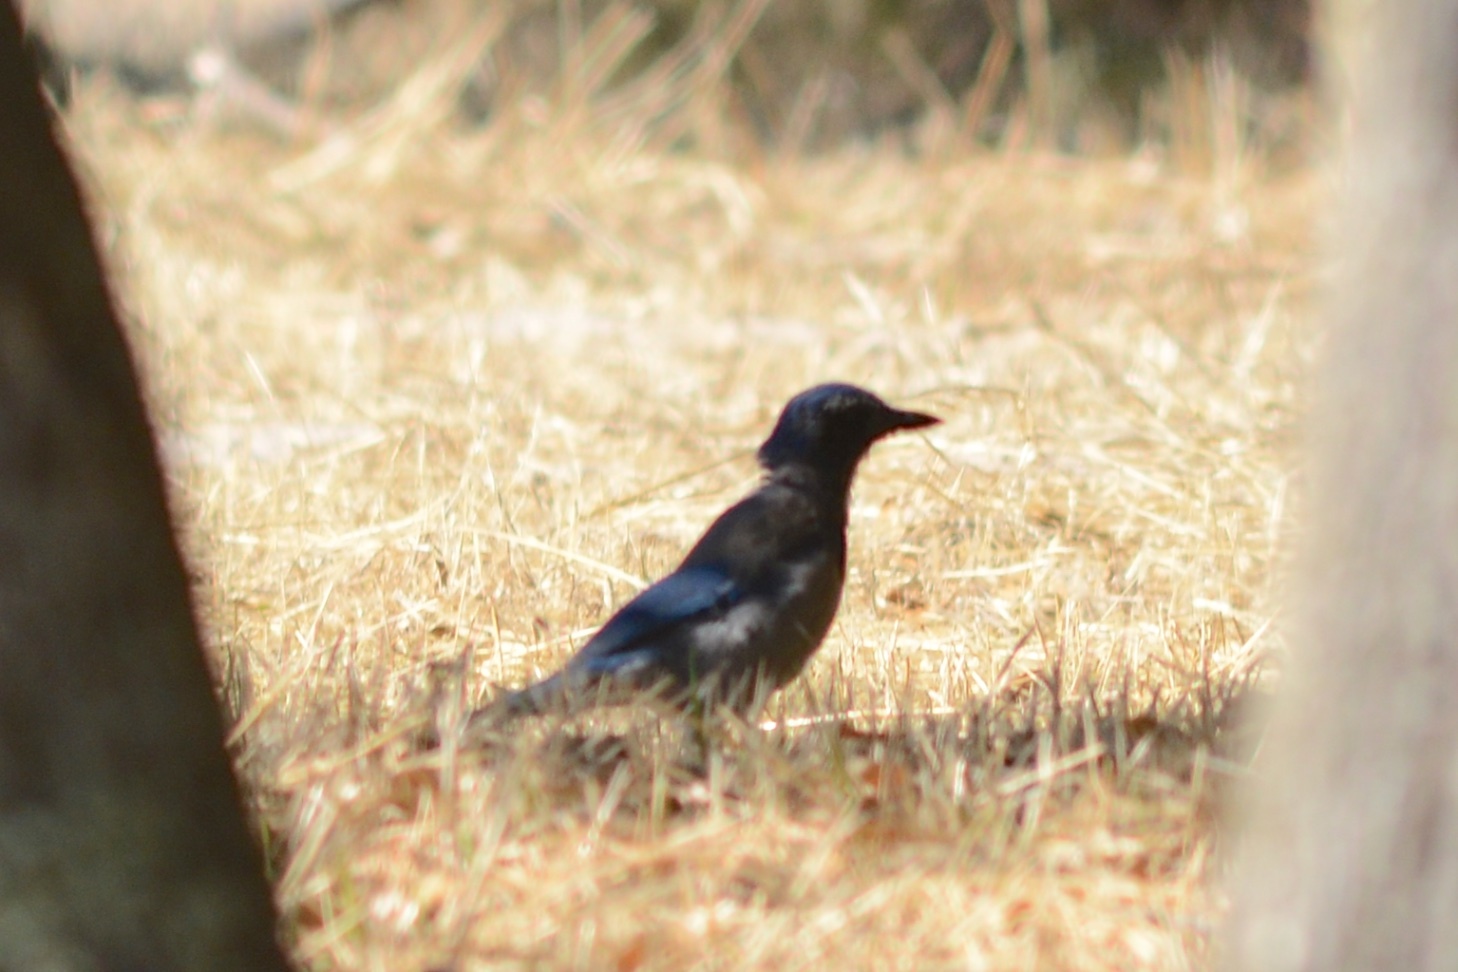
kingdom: Animalia
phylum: Chordata
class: Aves
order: Passeriformes
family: Corvidae
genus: Aphelocoma
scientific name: Aphelocoma californica
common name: California scrub-jay
